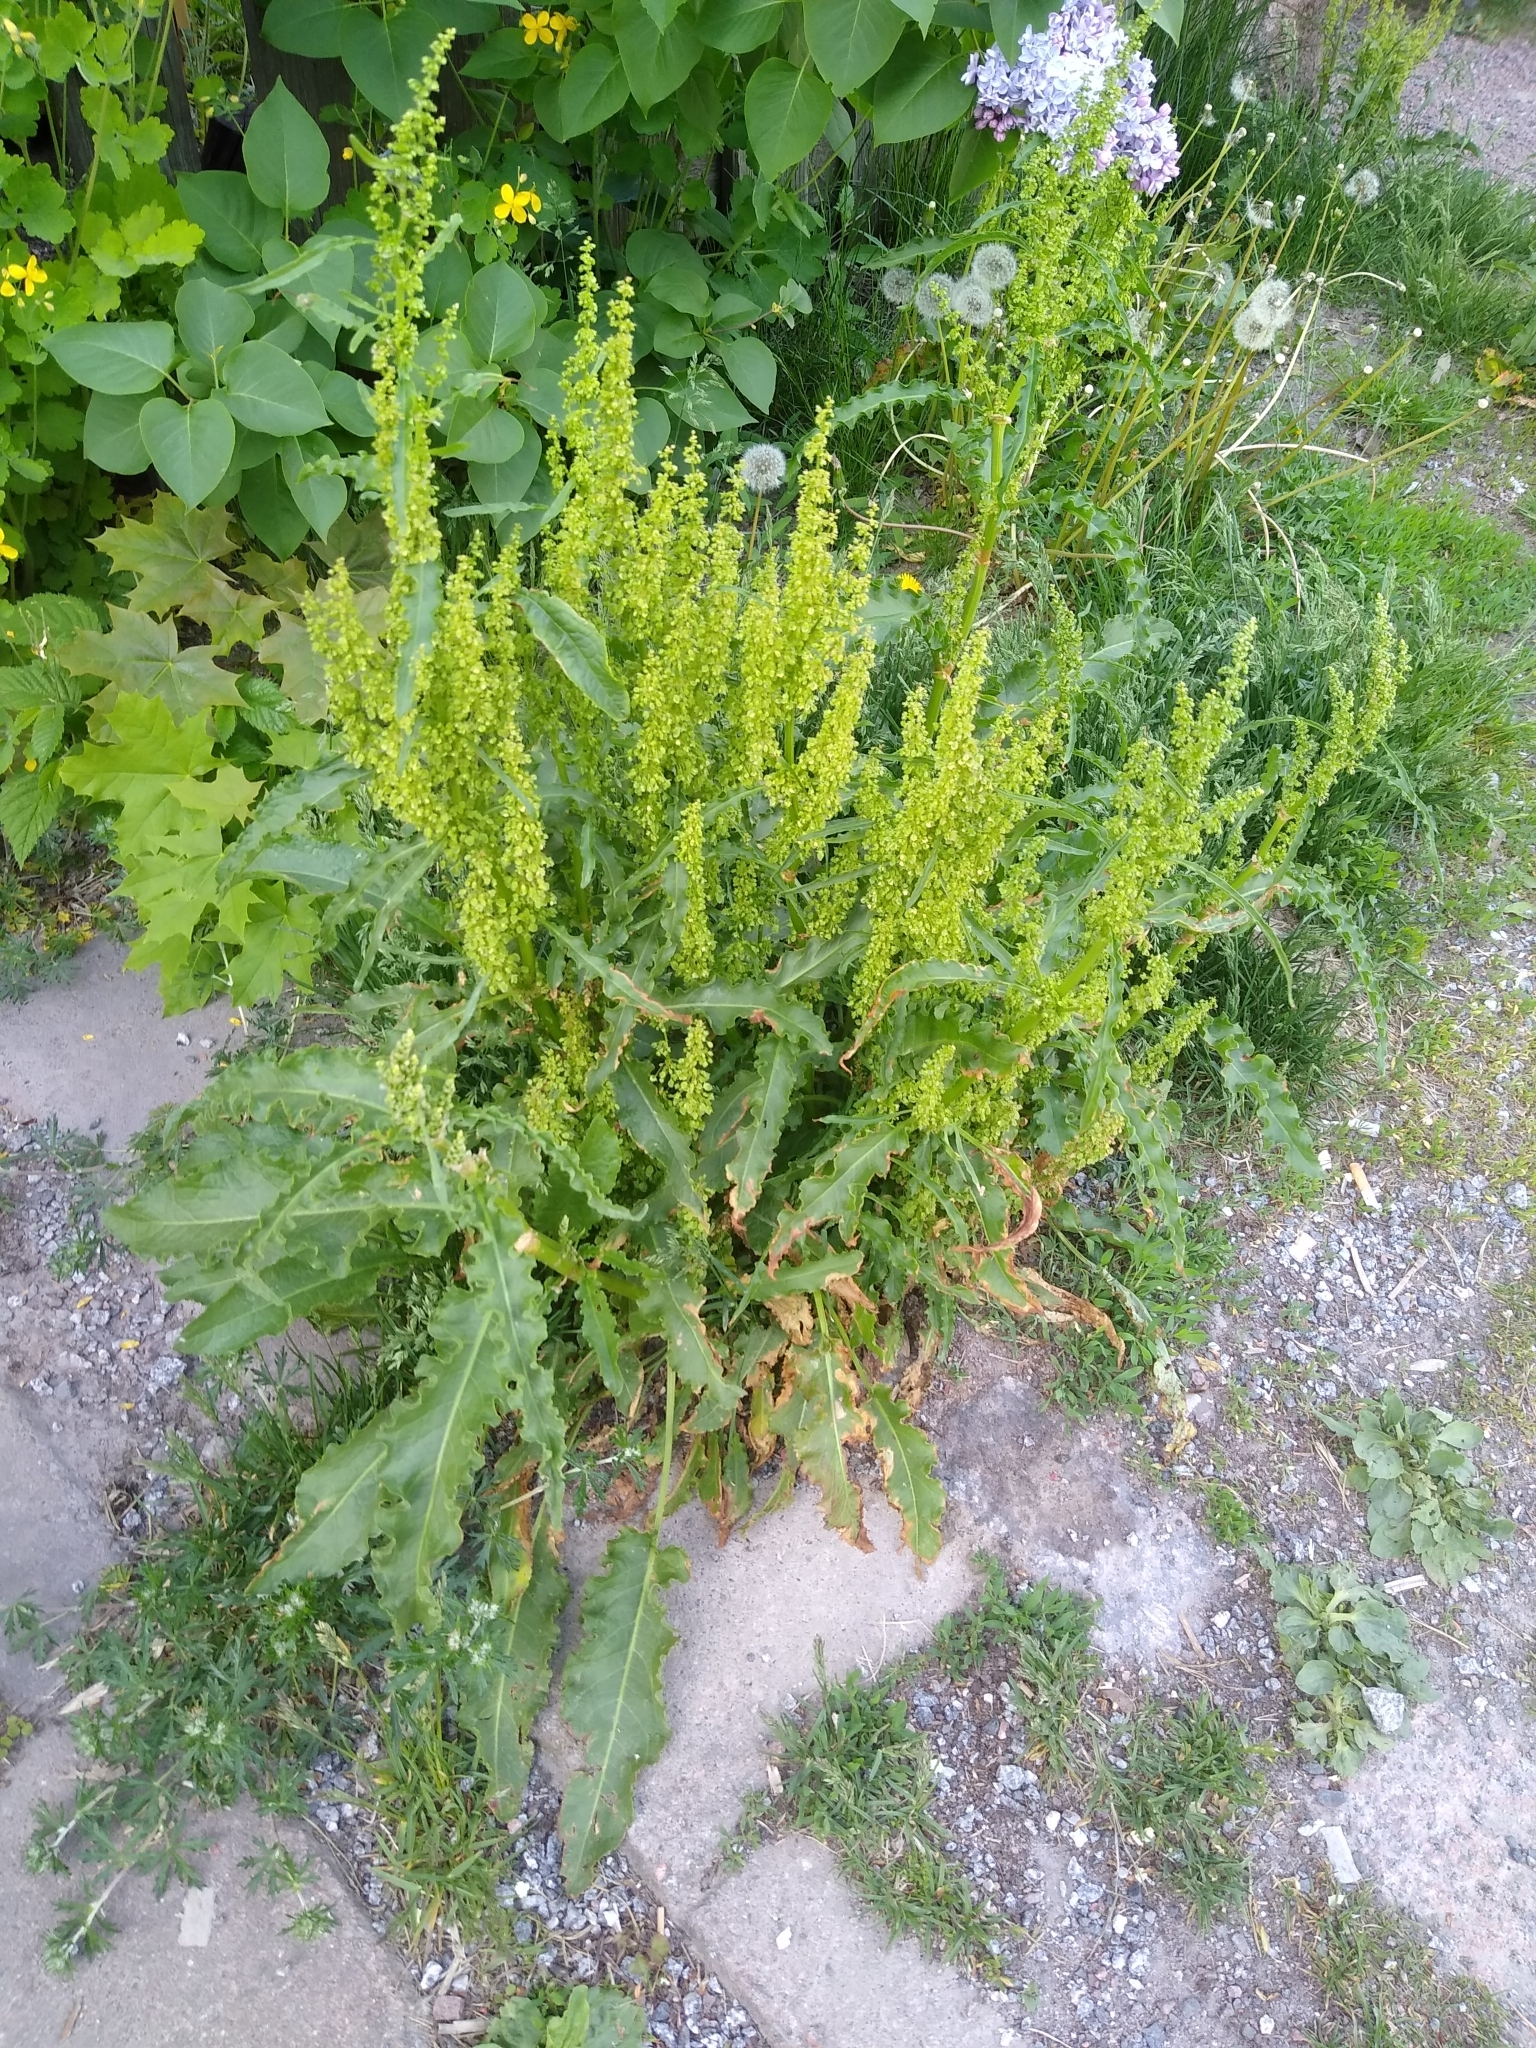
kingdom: Plantae
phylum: Tracheophyta
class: Magnoliopsida
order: Caryophyllales
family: Polygonaceae
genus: Rumex
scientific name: Rumex longifolius
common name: Dooryard dock
